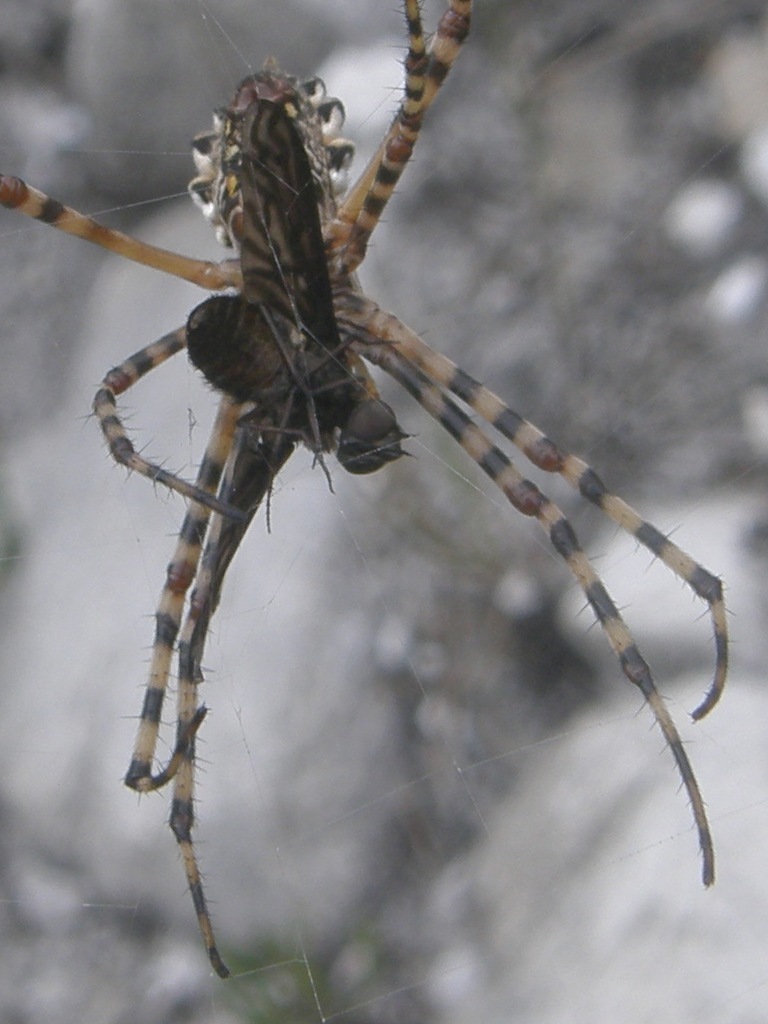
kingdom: Animalia
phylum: Arthropoda
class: Arachnida
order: Araneae
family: Araneidae
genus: Argiope
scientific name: Argiope australis
